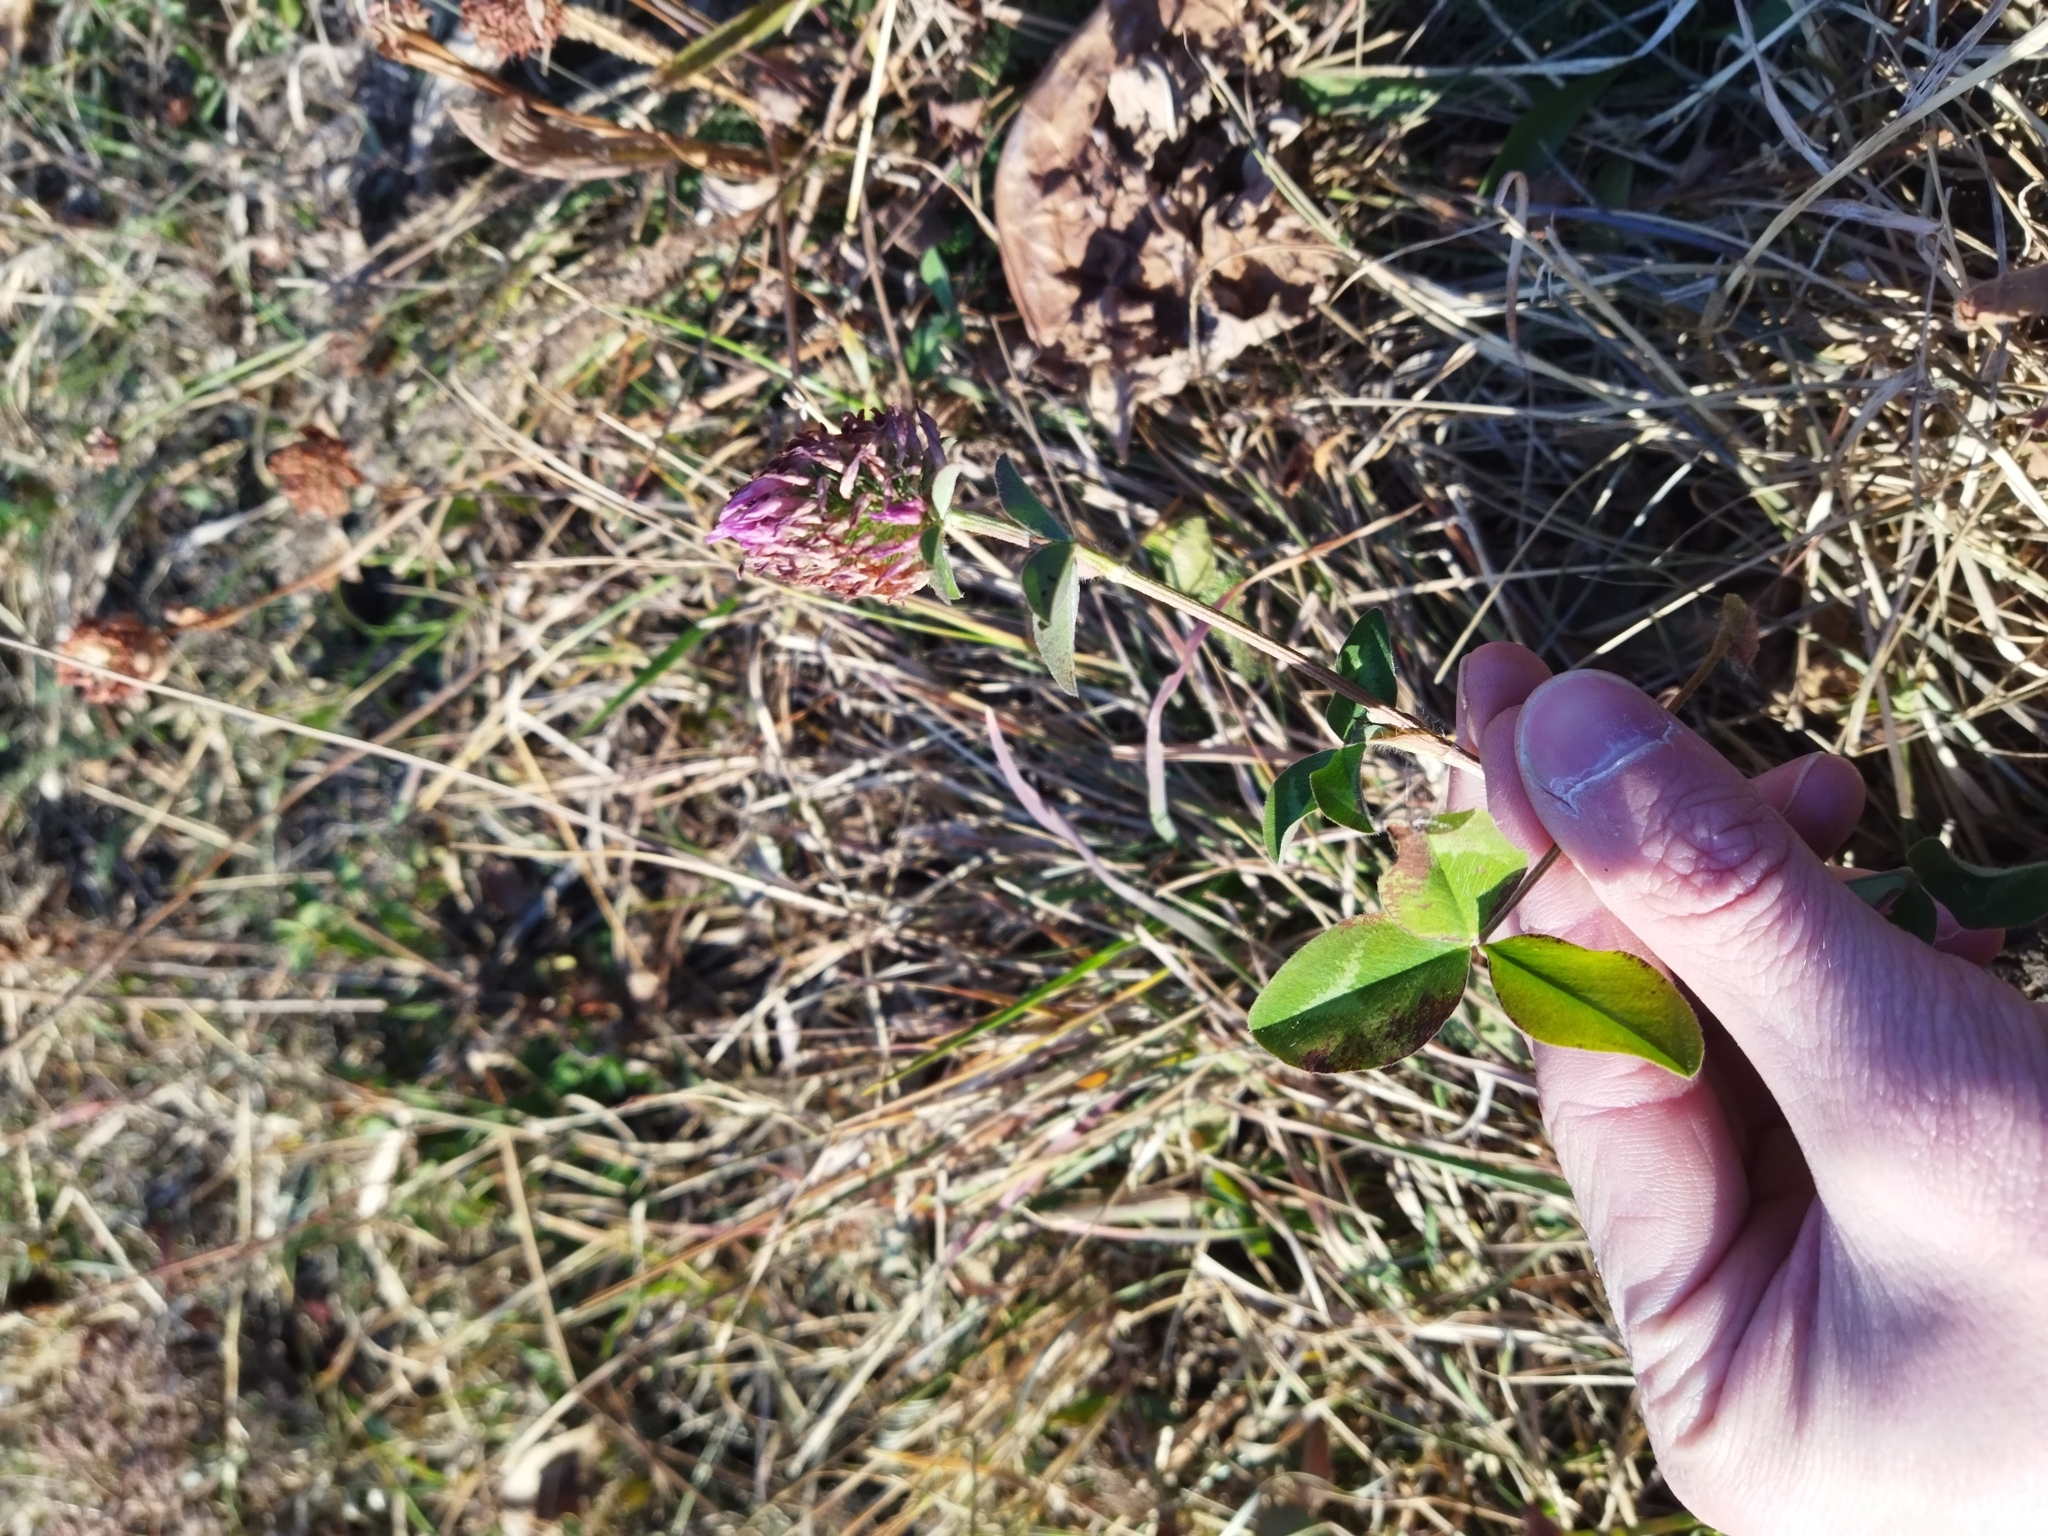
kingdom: Plantae
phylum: Tracheophyta
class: Magnoliopsida
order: Fabales
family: Fabaceae
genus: Trifolium
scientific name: Trifolium pratense
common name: Red clover
